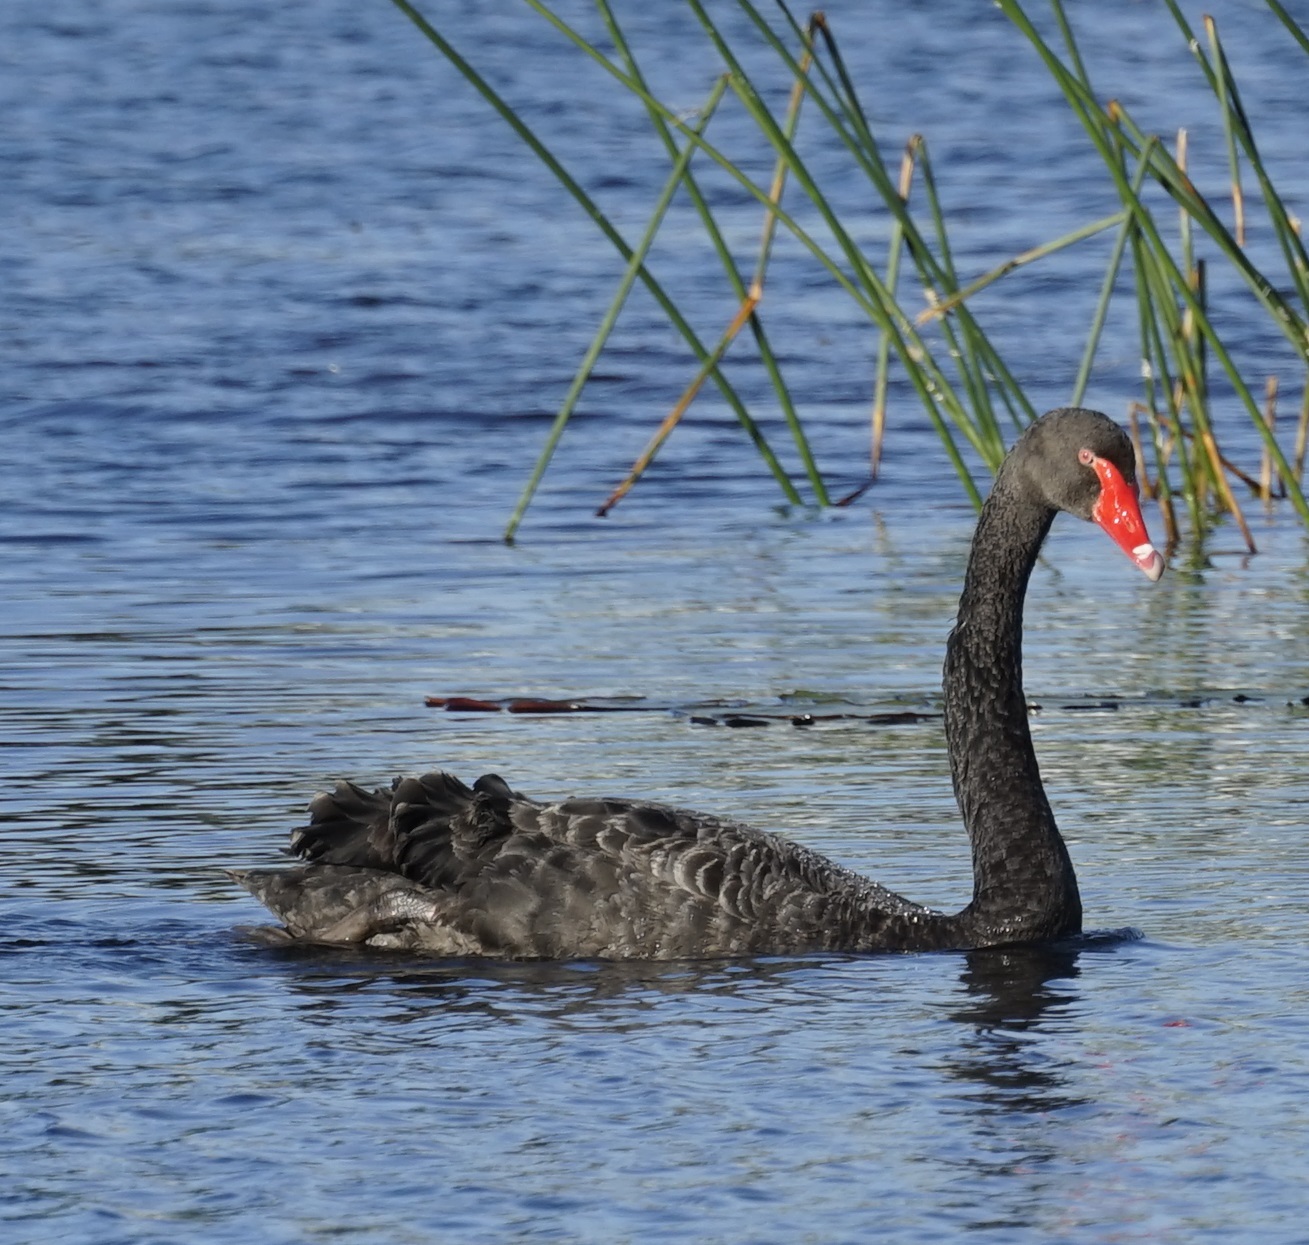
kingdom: Animalia
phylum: Chordata
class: Aves
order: Anseriformes
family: Anatidae
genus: Cygnus
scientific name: Cygnus atratus
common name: Black swan
